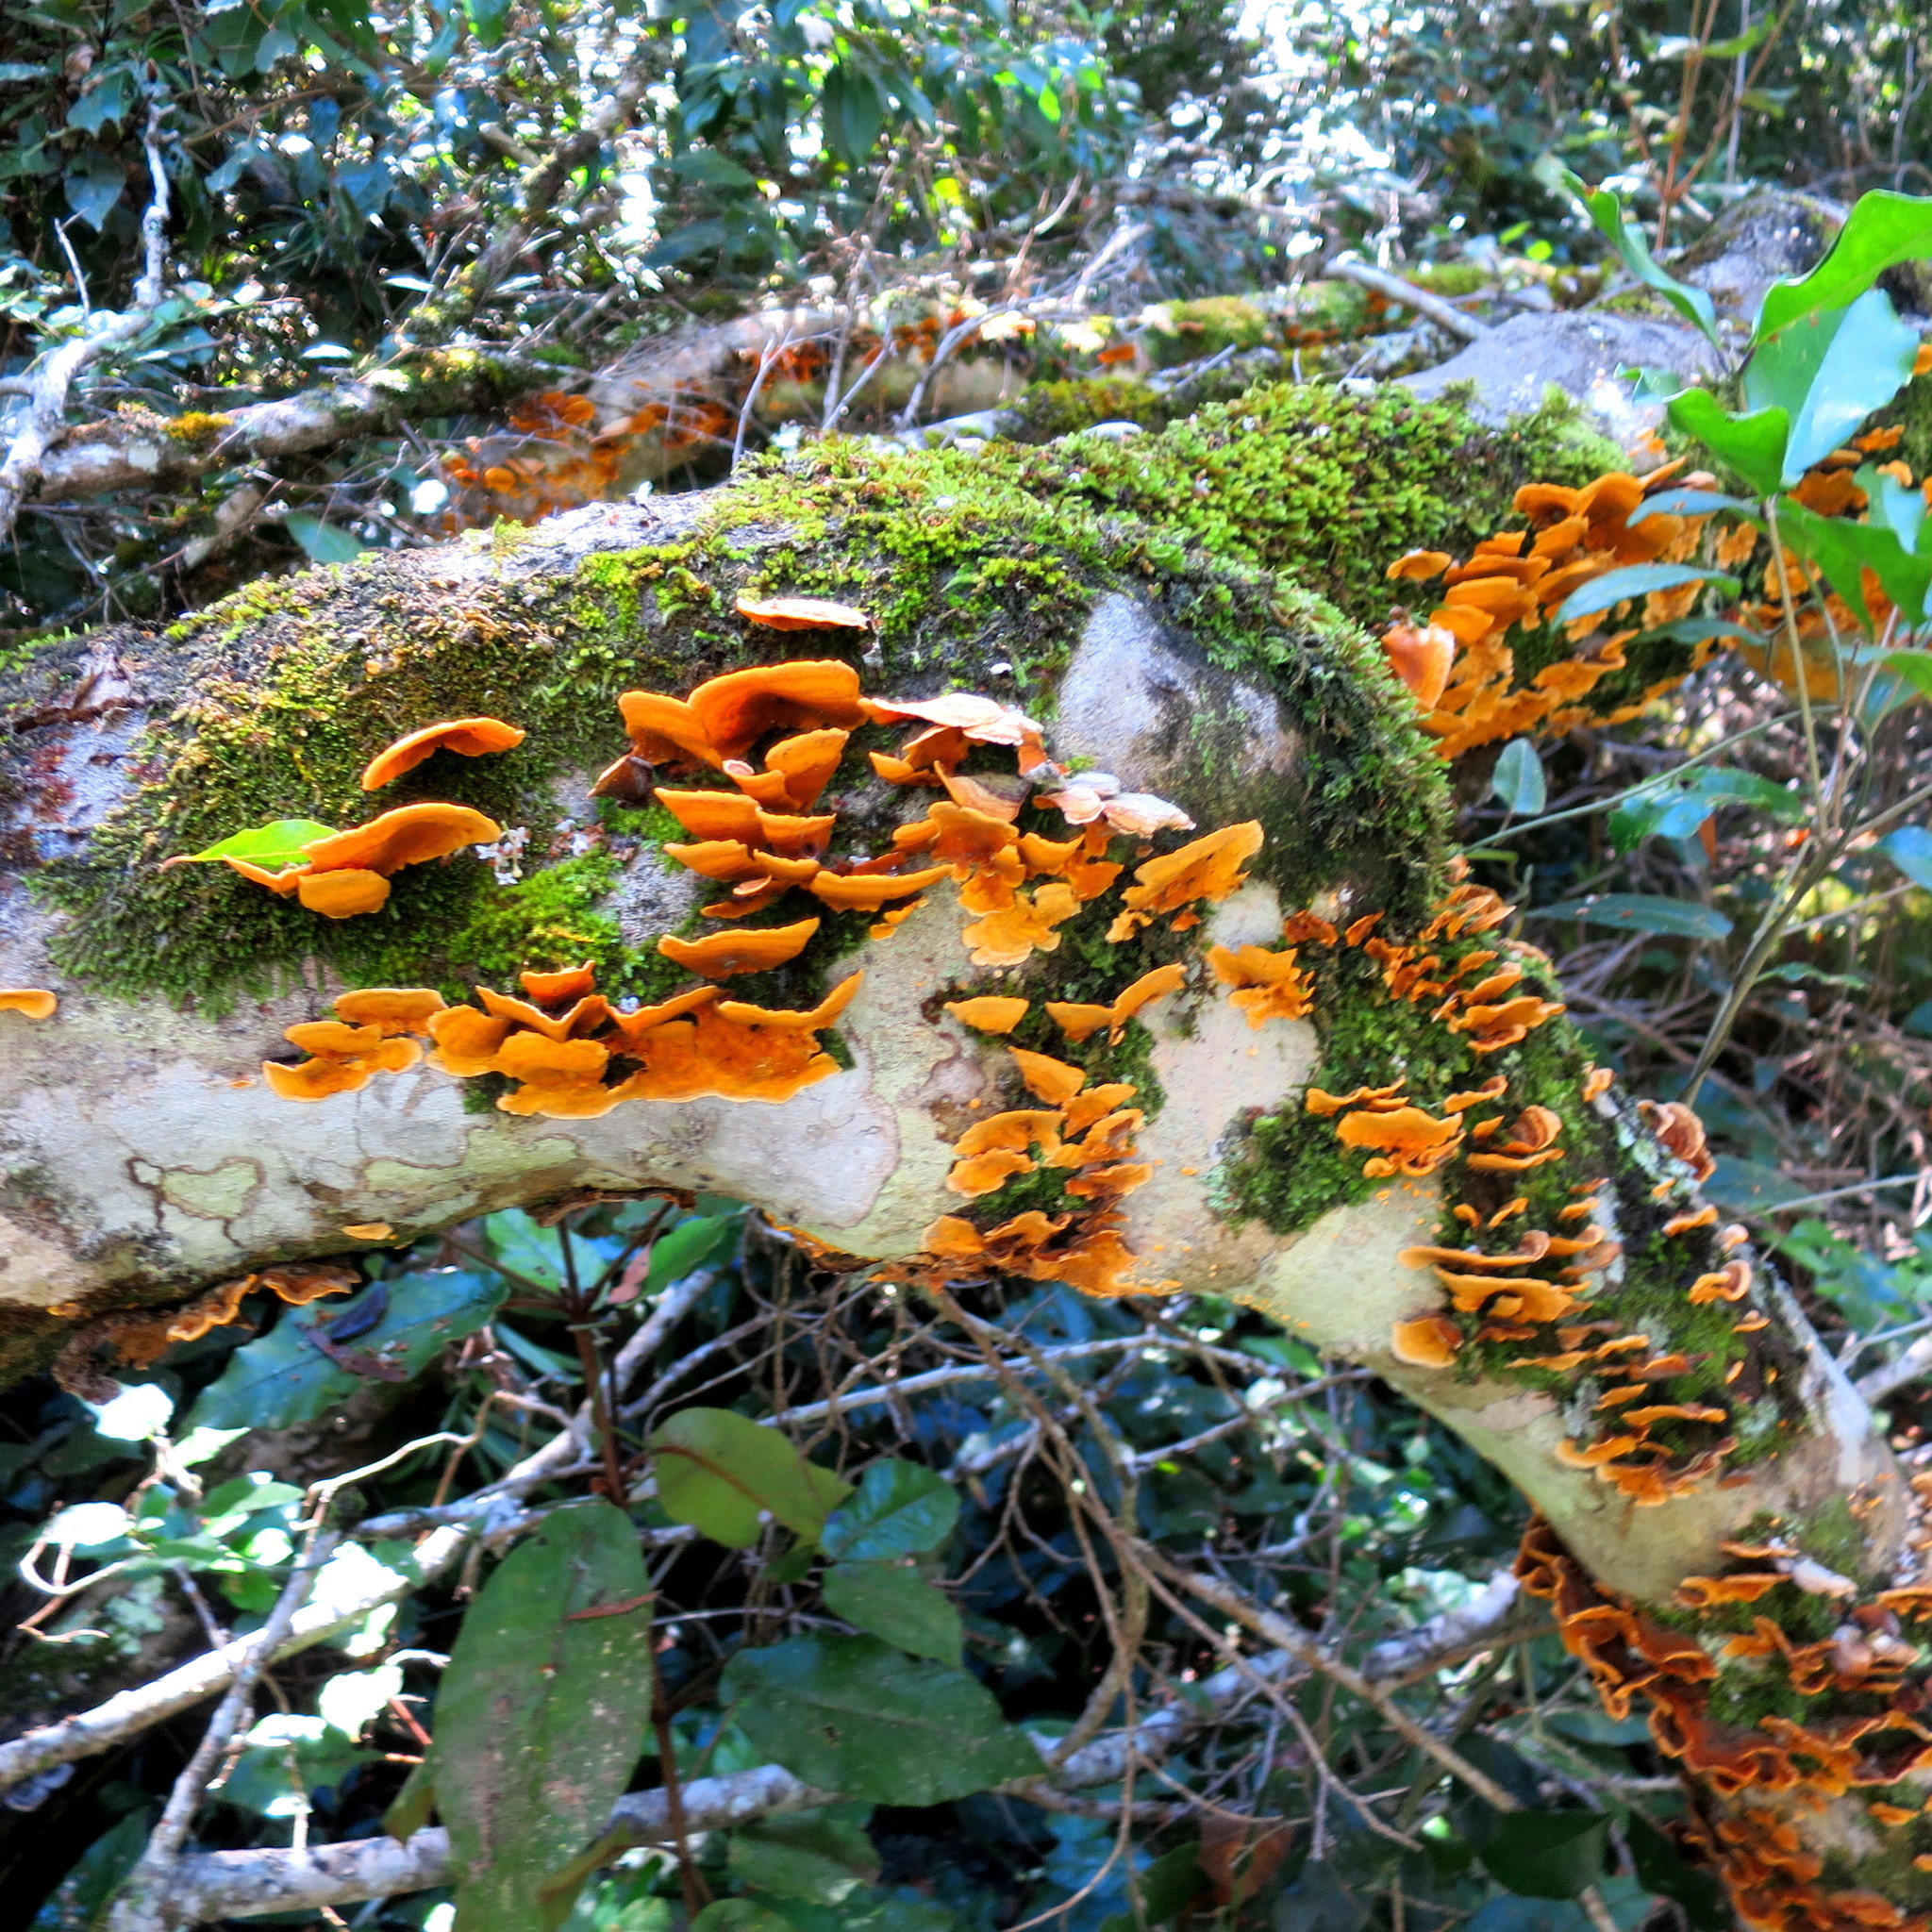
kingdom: Fungi
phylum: Basidiomycota
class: Agaricomycetes
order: Polyporales
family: Polyporaceae
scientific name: Polyporaceae
